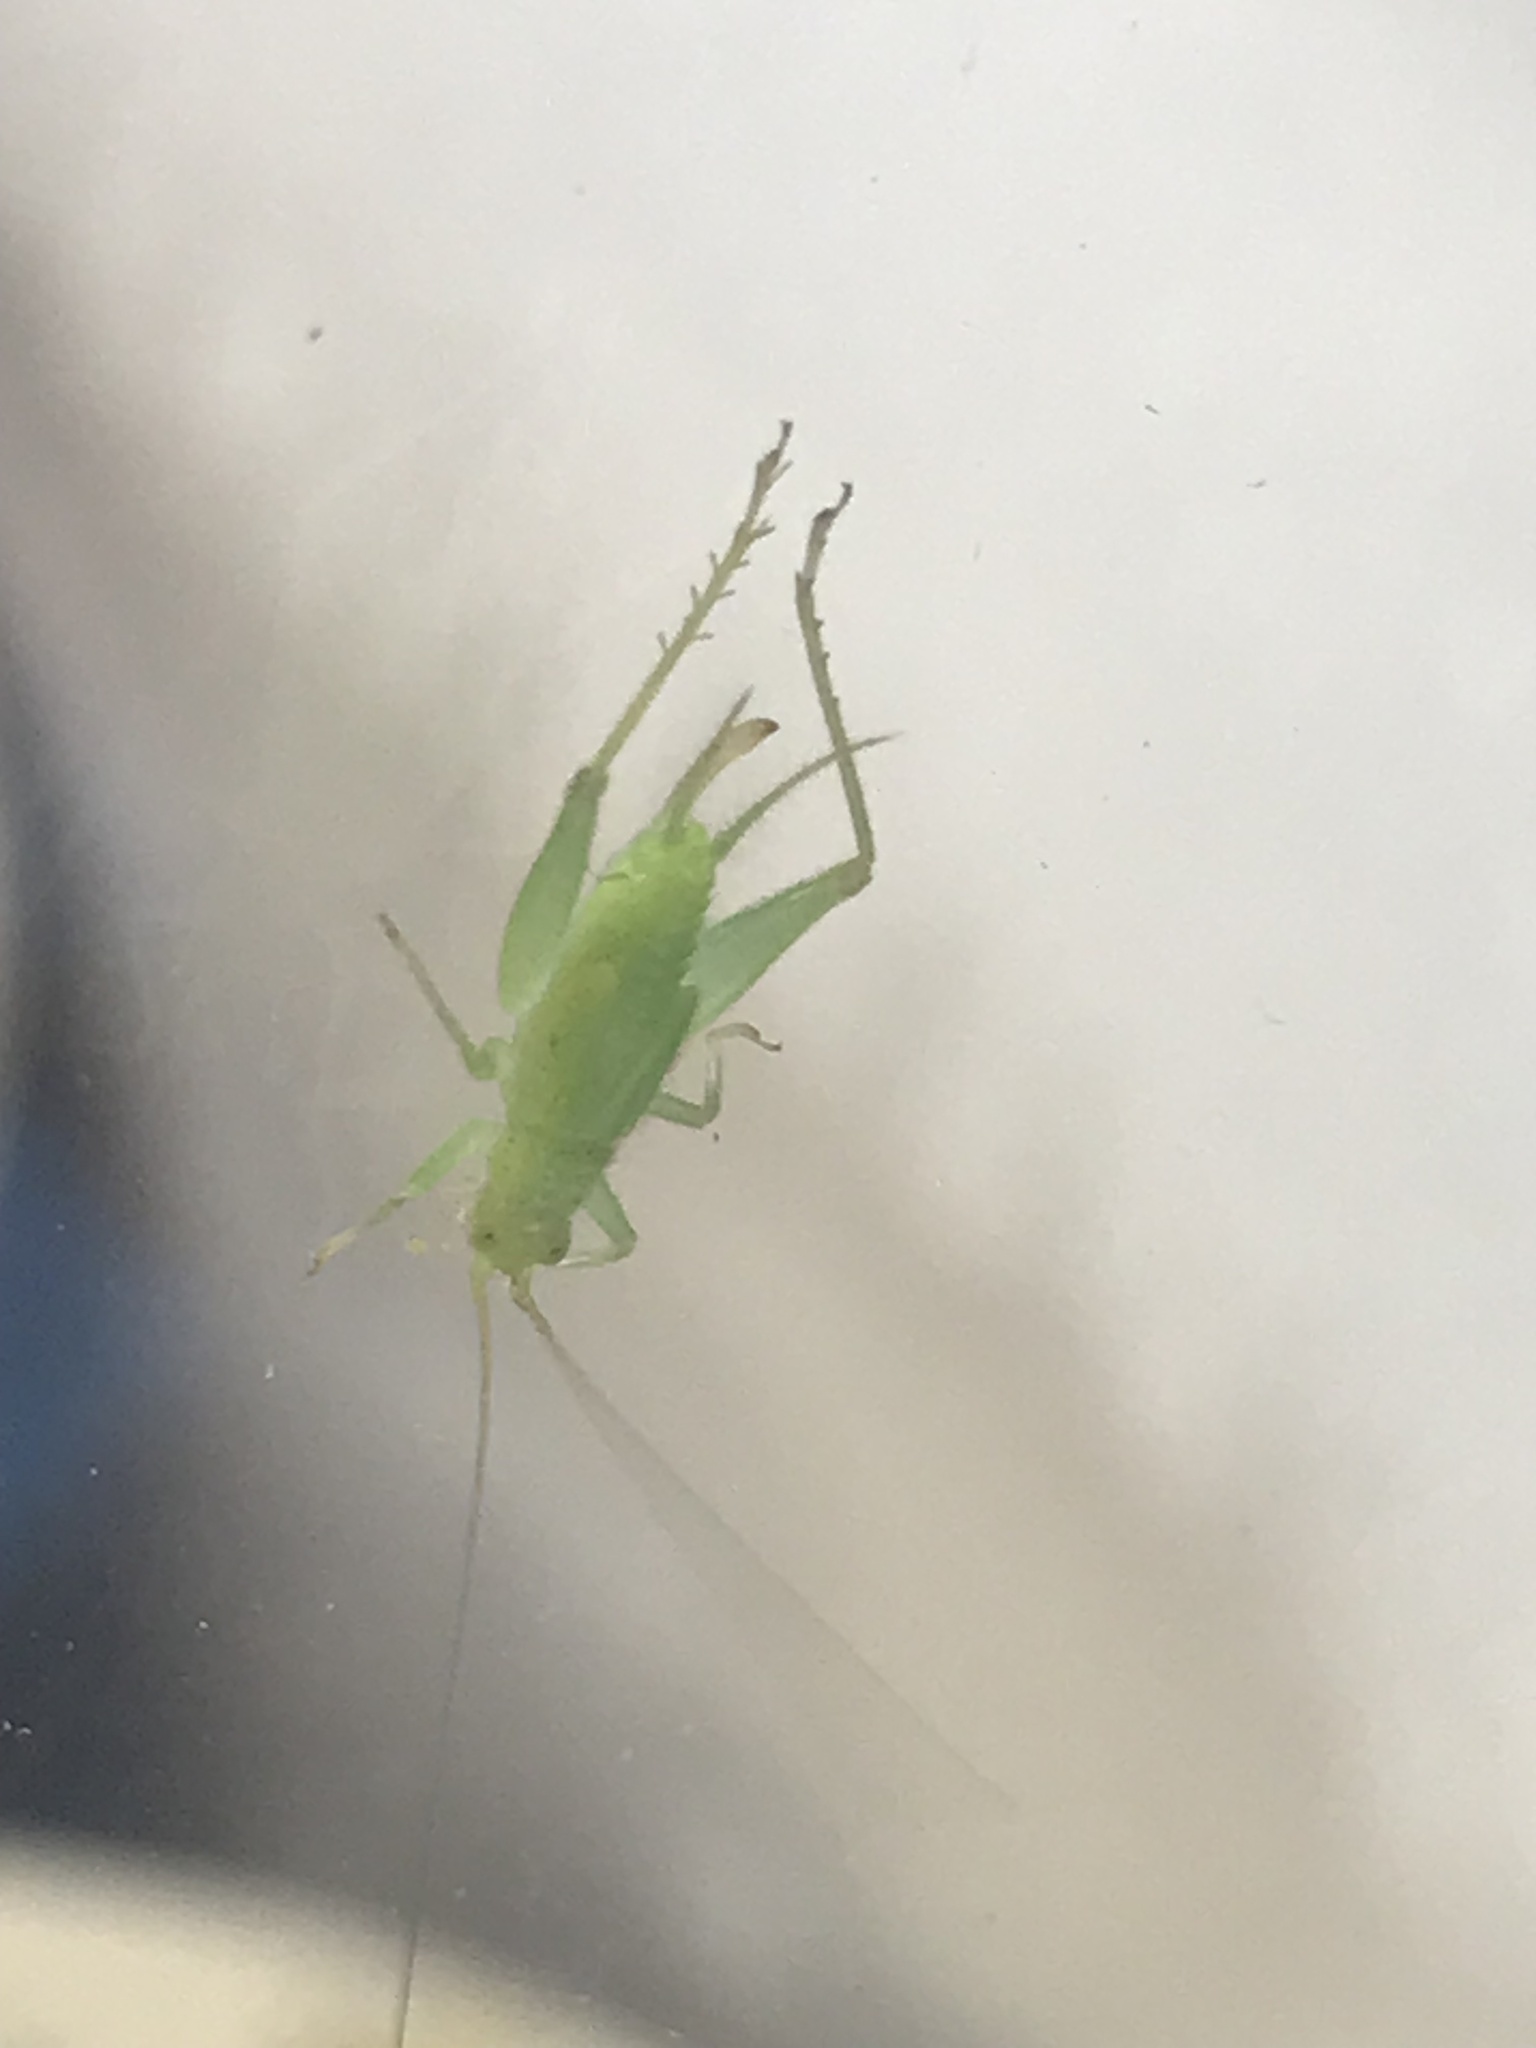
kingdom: Animalia
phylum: Arthropoda
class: Insecta
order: Orthoptera
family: Trigonidiidae
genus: Cyrtoxipha
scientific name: Cyrtoxipha columbiana
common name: Columbian trig
